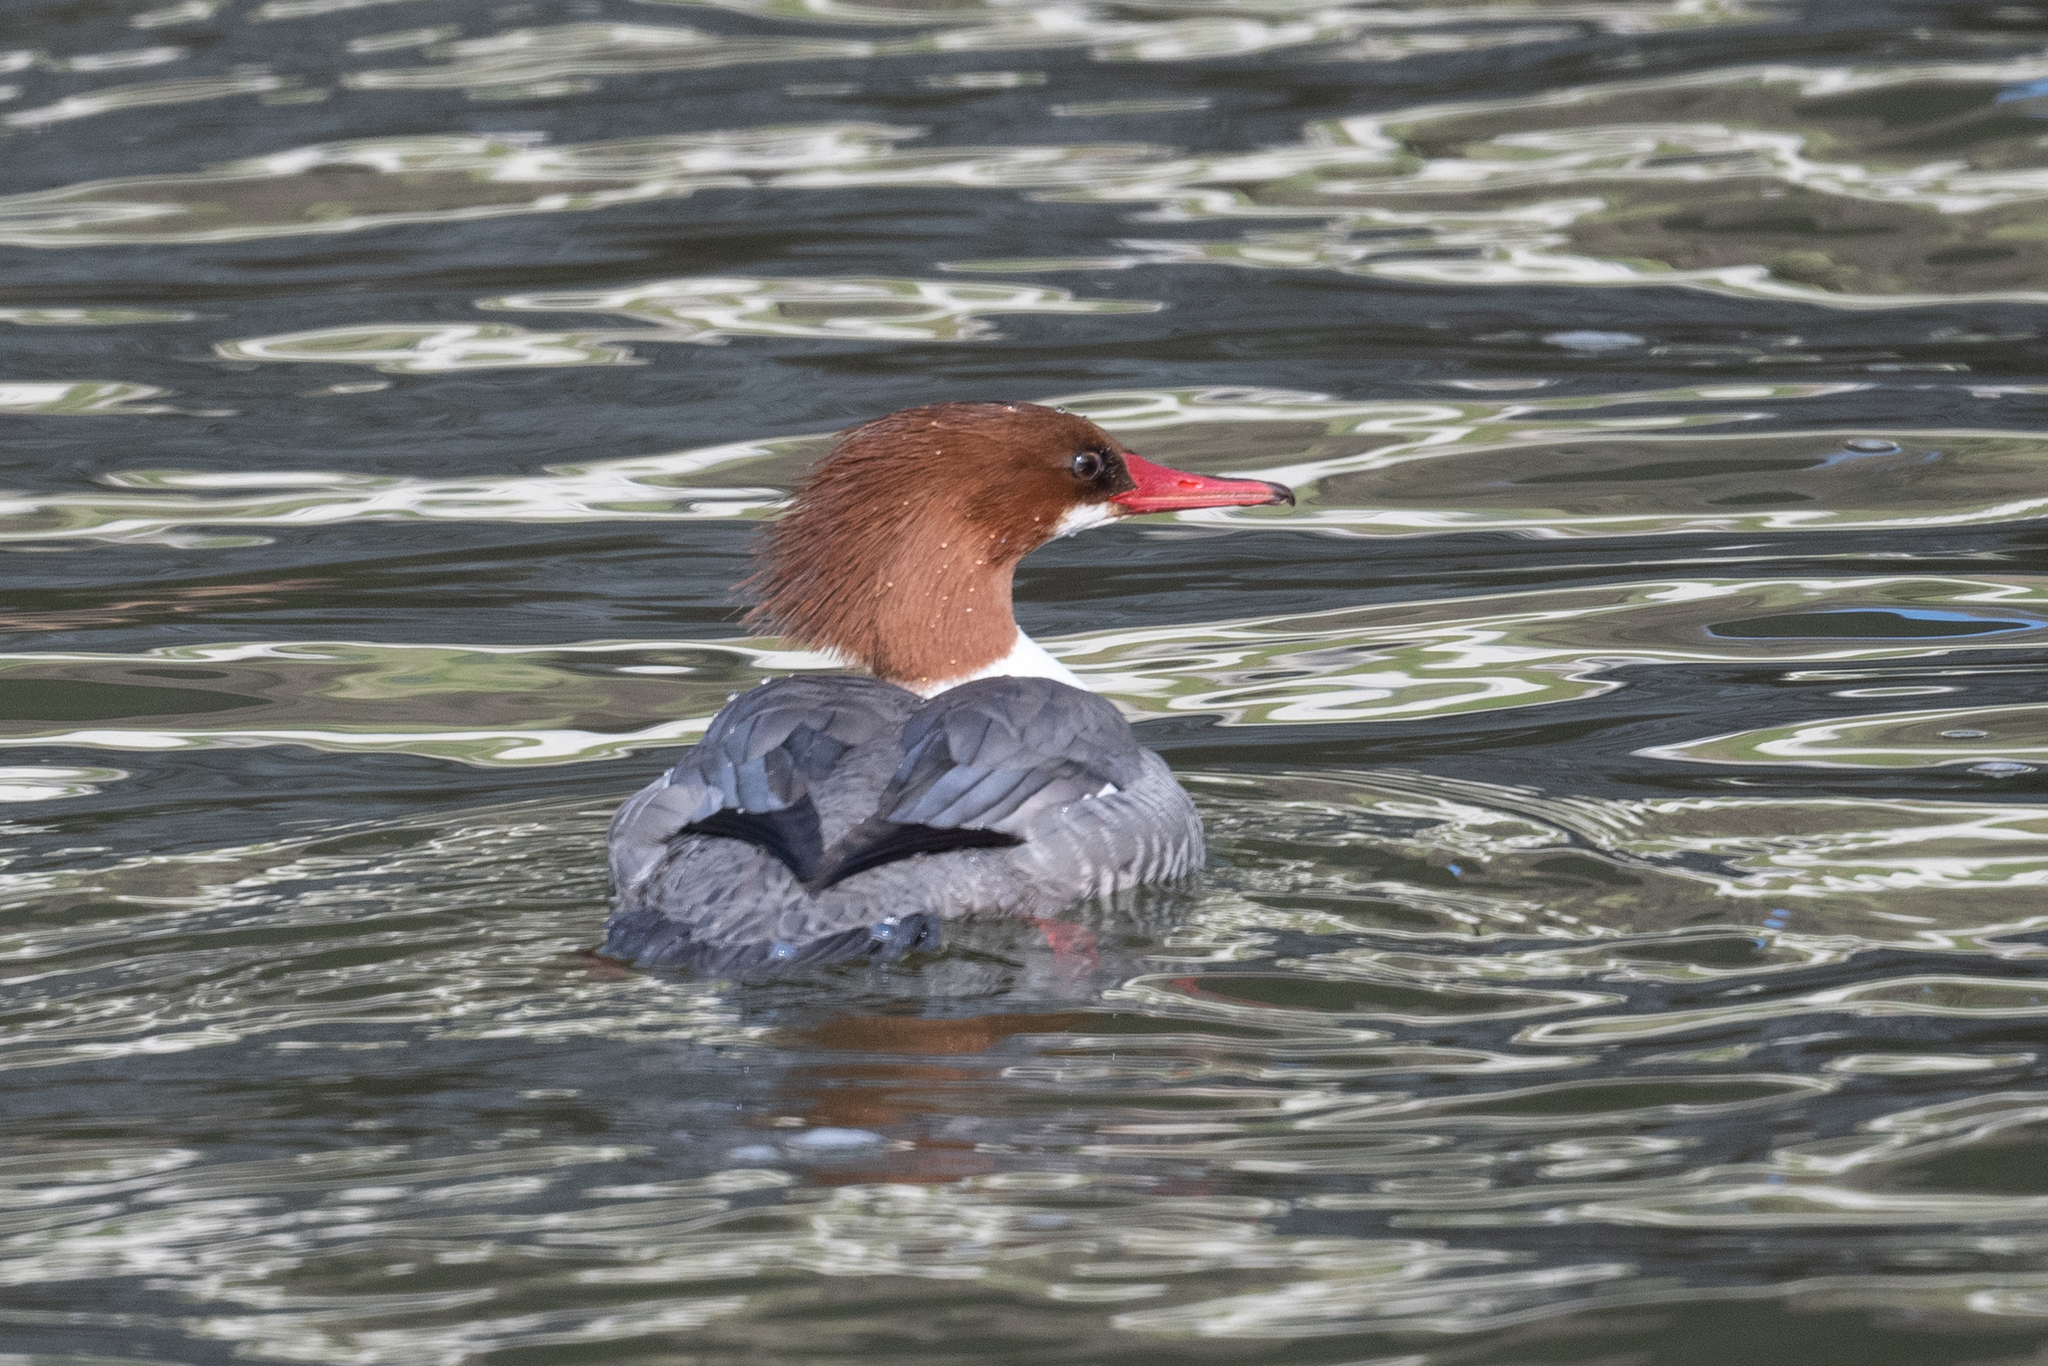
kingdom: Animalia
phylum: Chordata
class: Aves
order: Anseriformes
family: Anatidae
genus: Mergus
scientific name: Mergus merganser
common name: Common merganser
